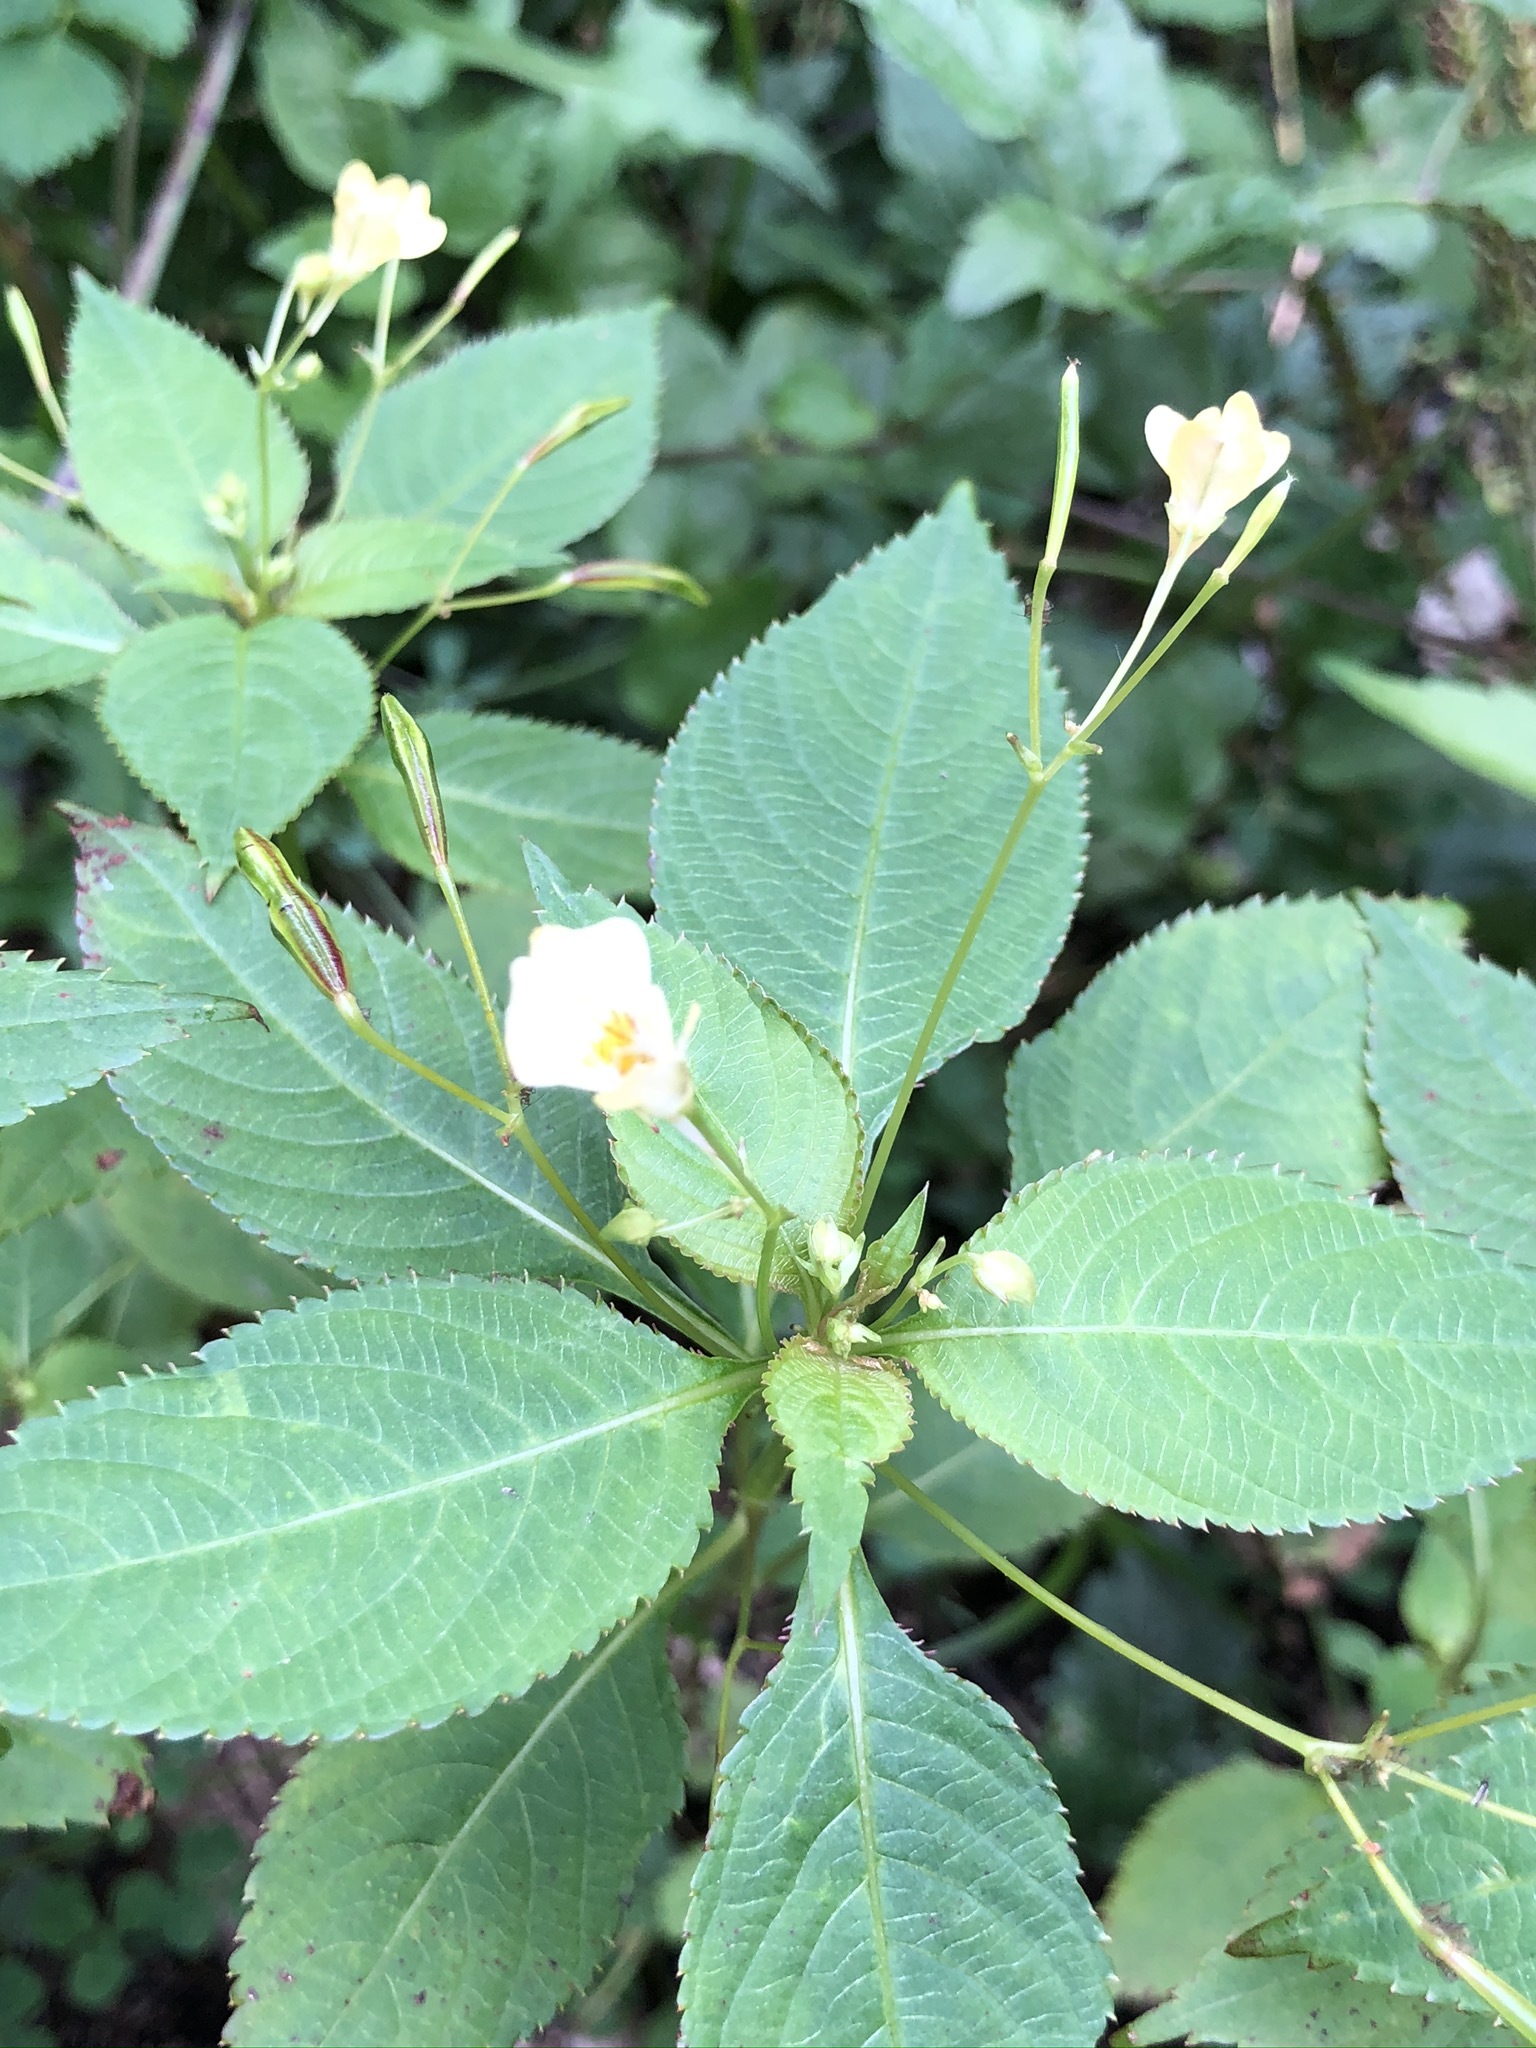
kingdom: Plantae
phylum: Tracheophyta
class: Magnoliopsida
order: Ericales
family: Balsaminaceae
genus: Impatiens
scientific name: Impatiens parviflora
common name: Small balsam
